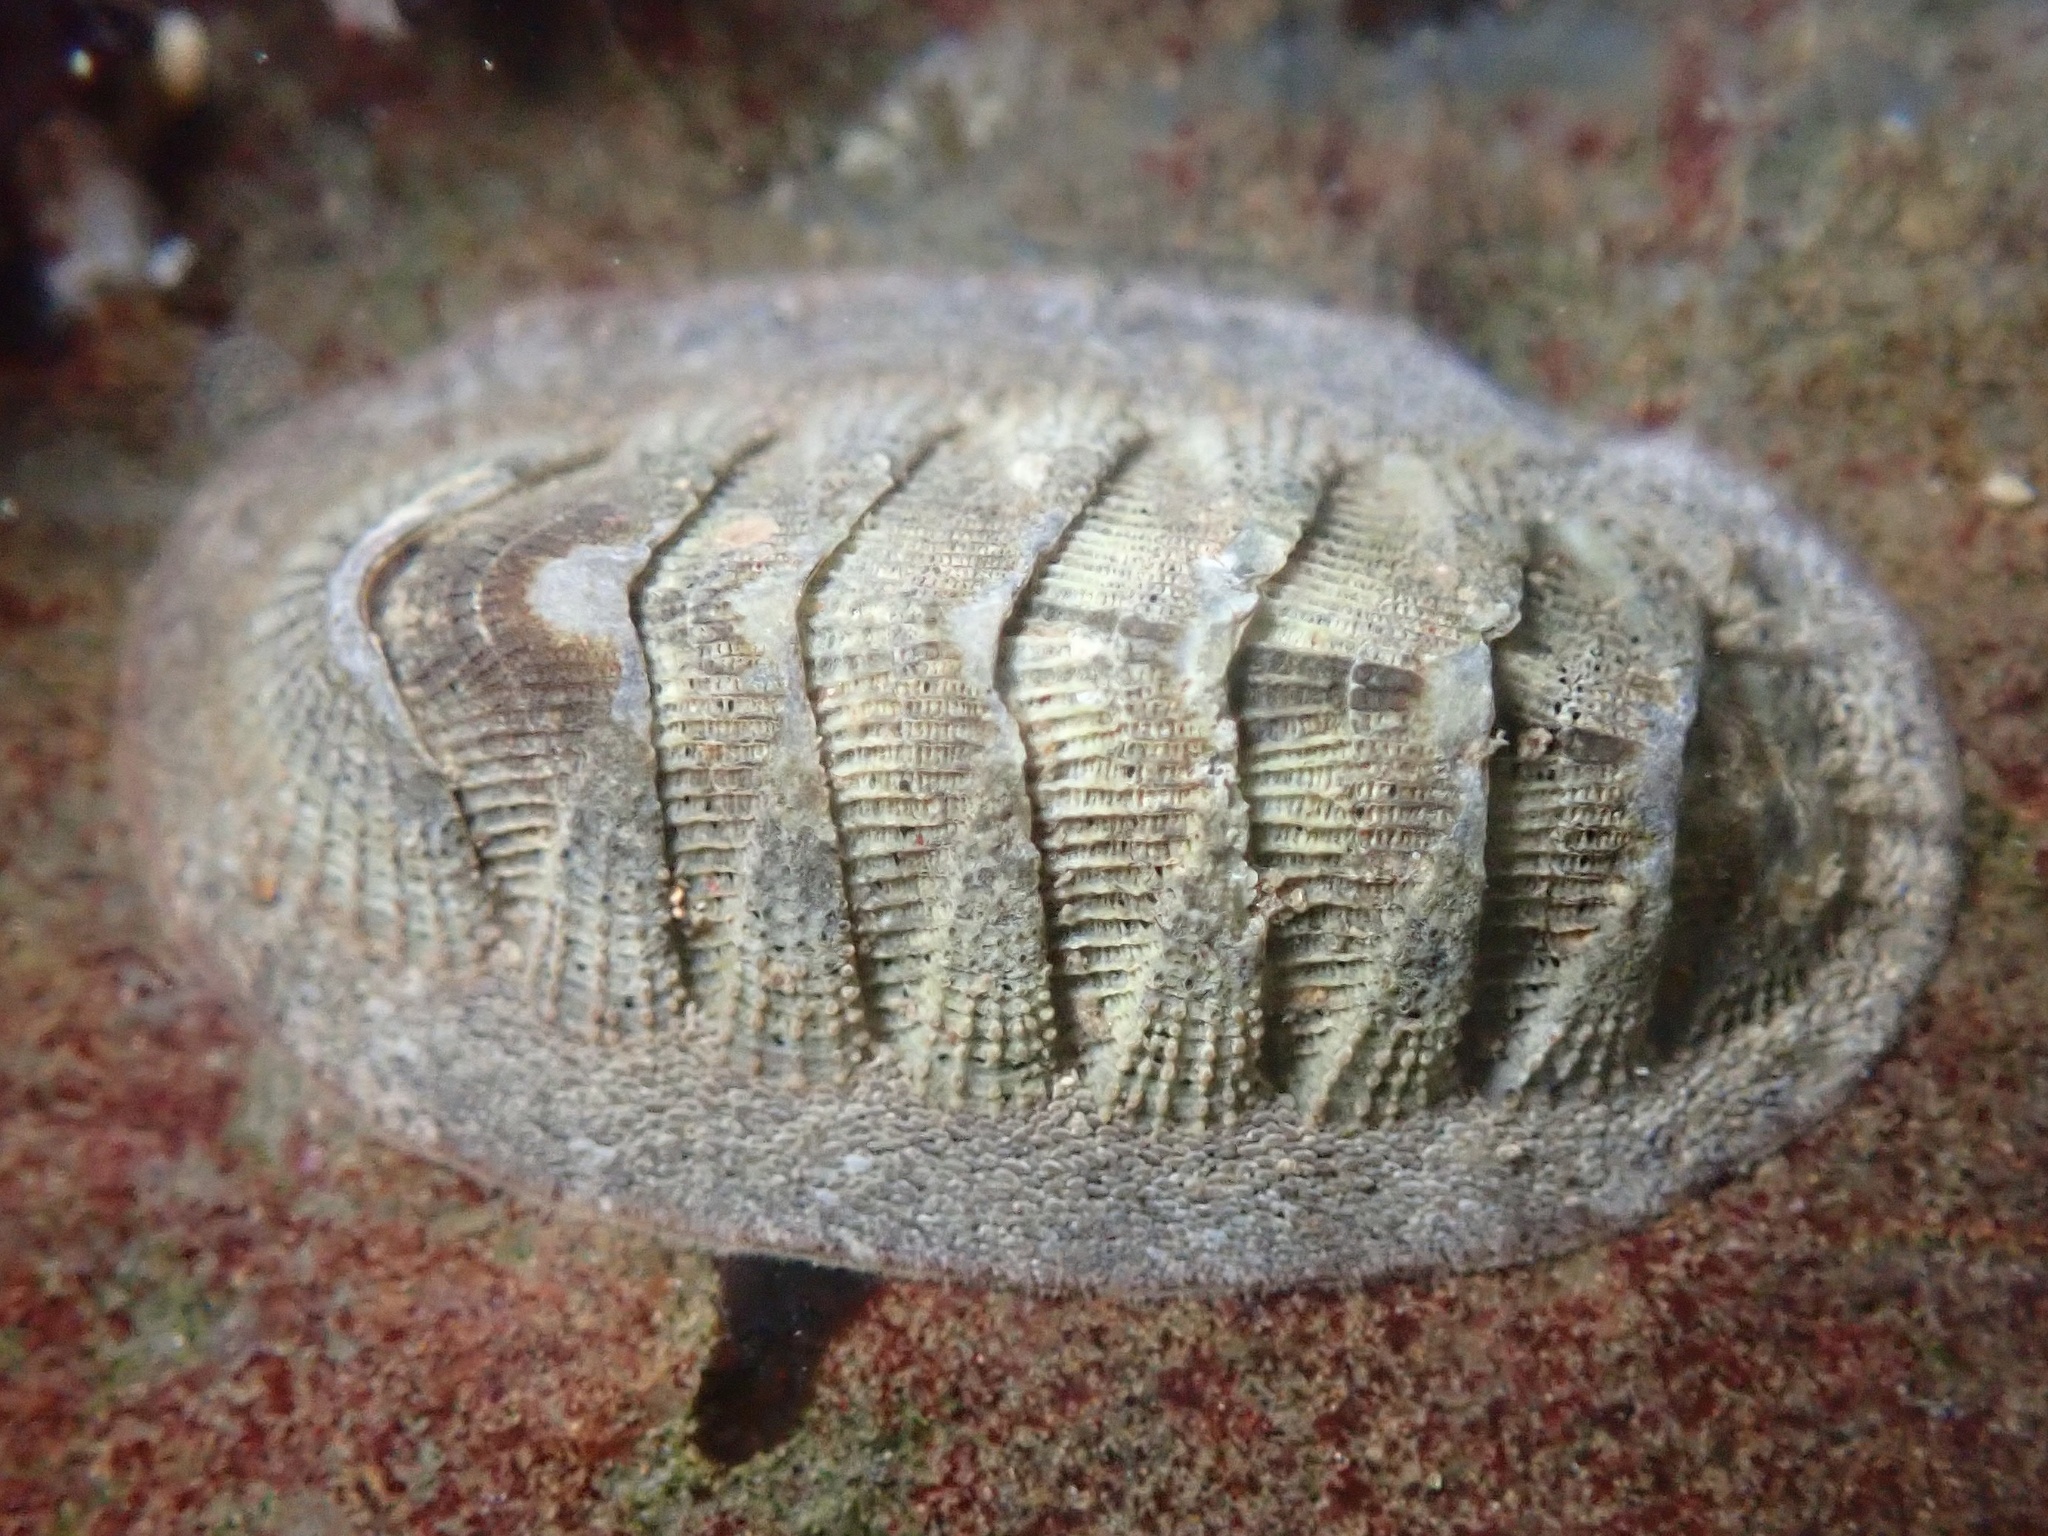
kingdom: Animalia
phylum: Mollusca
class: Polyplacophora
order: Chitonida
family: Ischnochitonidae
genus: Lepidozona
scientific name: Lepidozona cooperi
